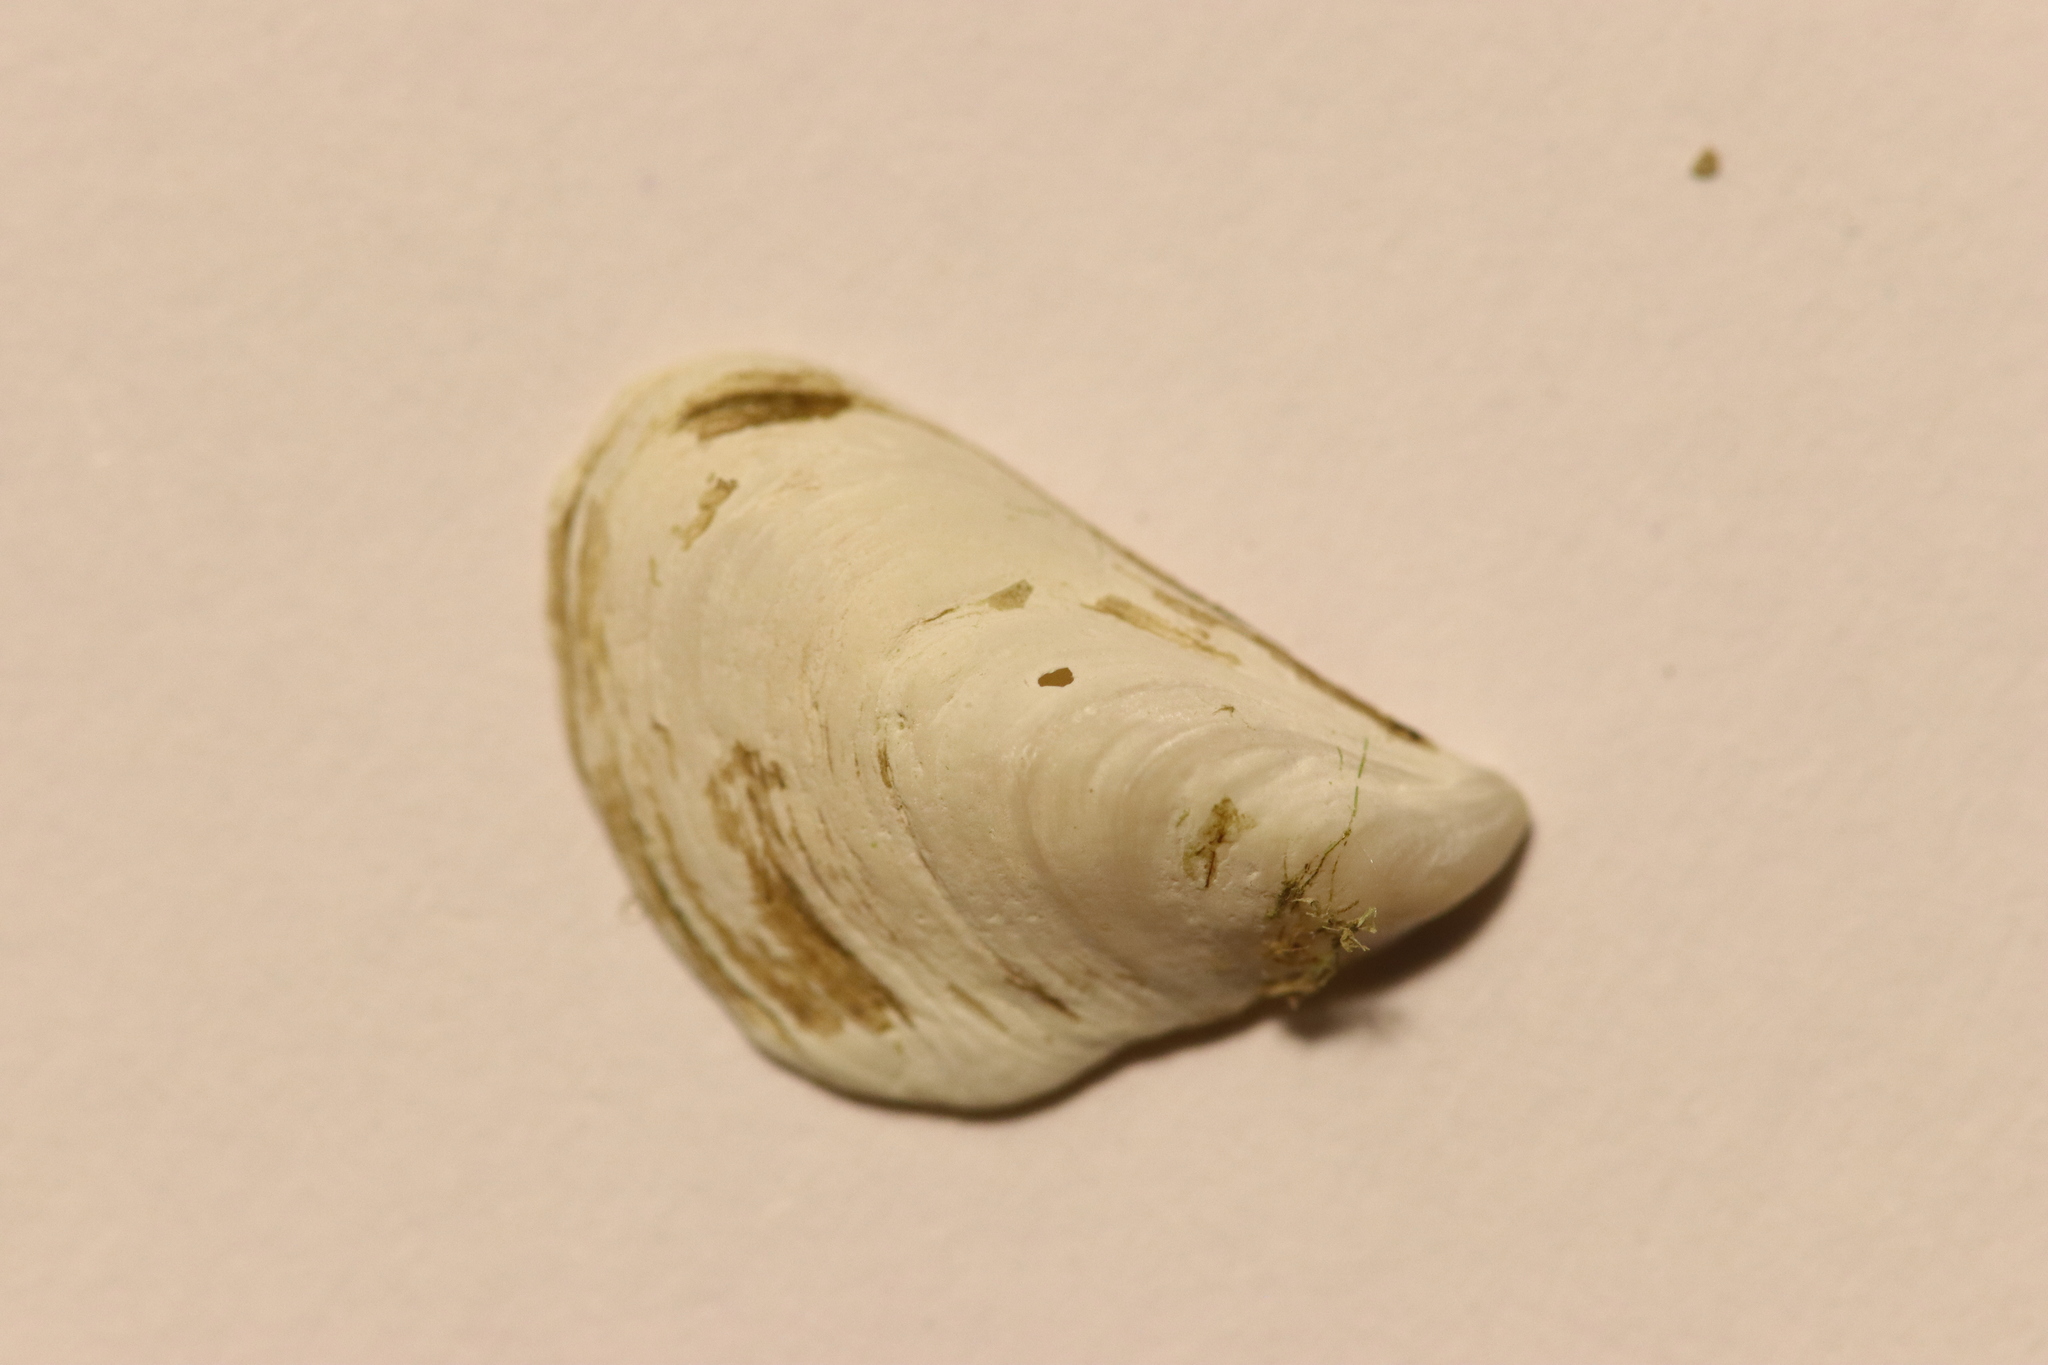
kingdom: Animalia
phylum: Mollusca
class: Bivalvia
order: Myida
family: Dreissenidae
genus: Dreissena
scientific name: Dreissena bugensis
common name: Quagga mussel
